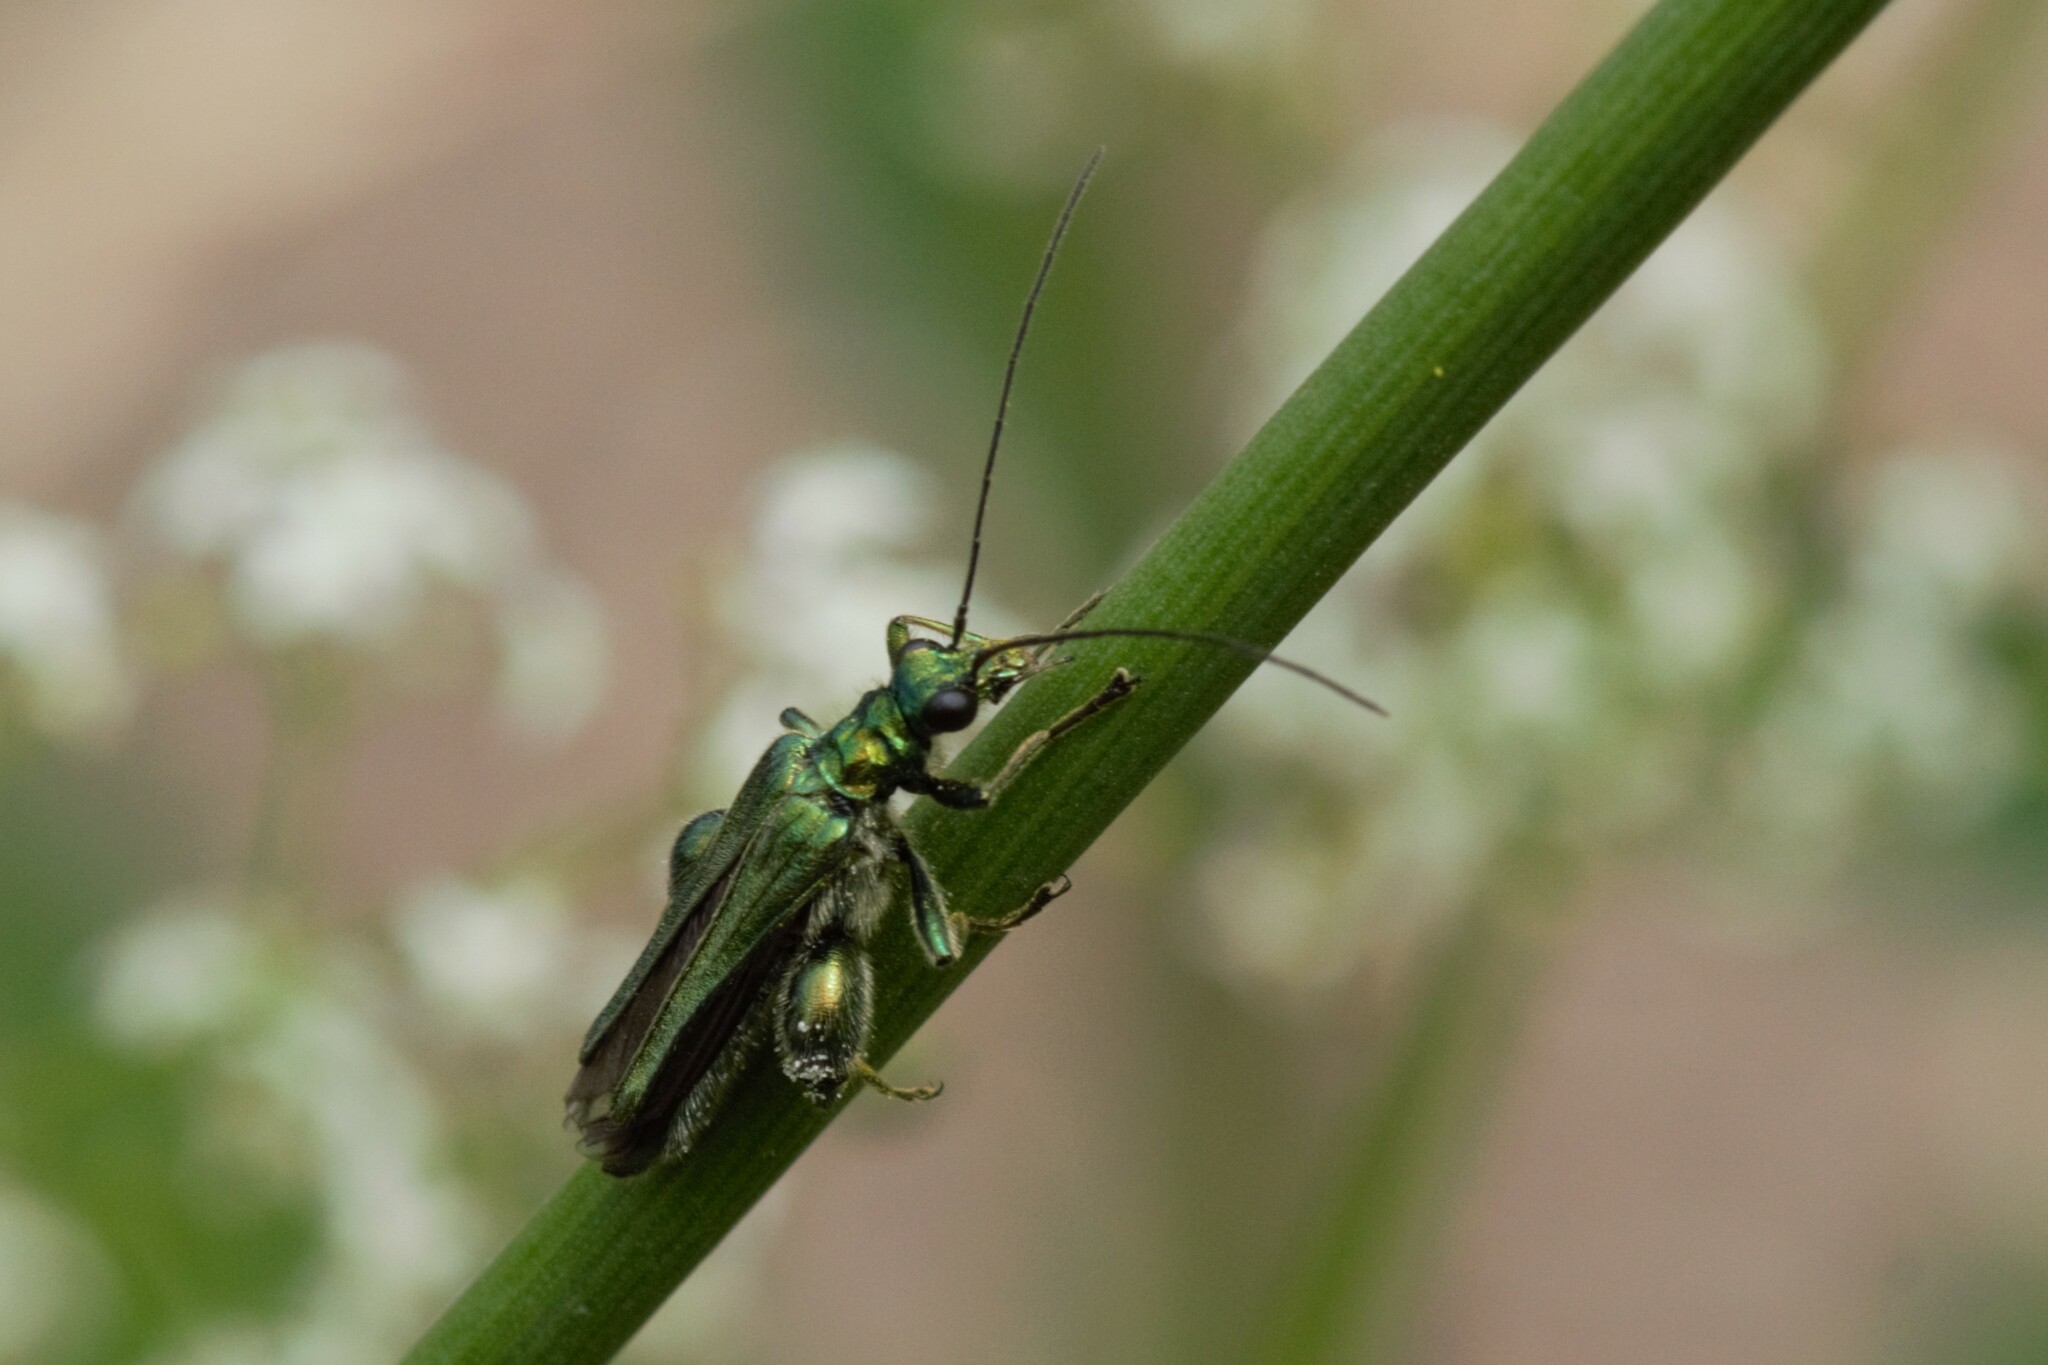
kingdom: Animalia
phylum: Arthropoda
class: Insecta
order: Coleoptera
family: Oedemeridae
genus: Oedemera
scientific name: Oedemera nobilis
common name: Swollen-thighed beetle
